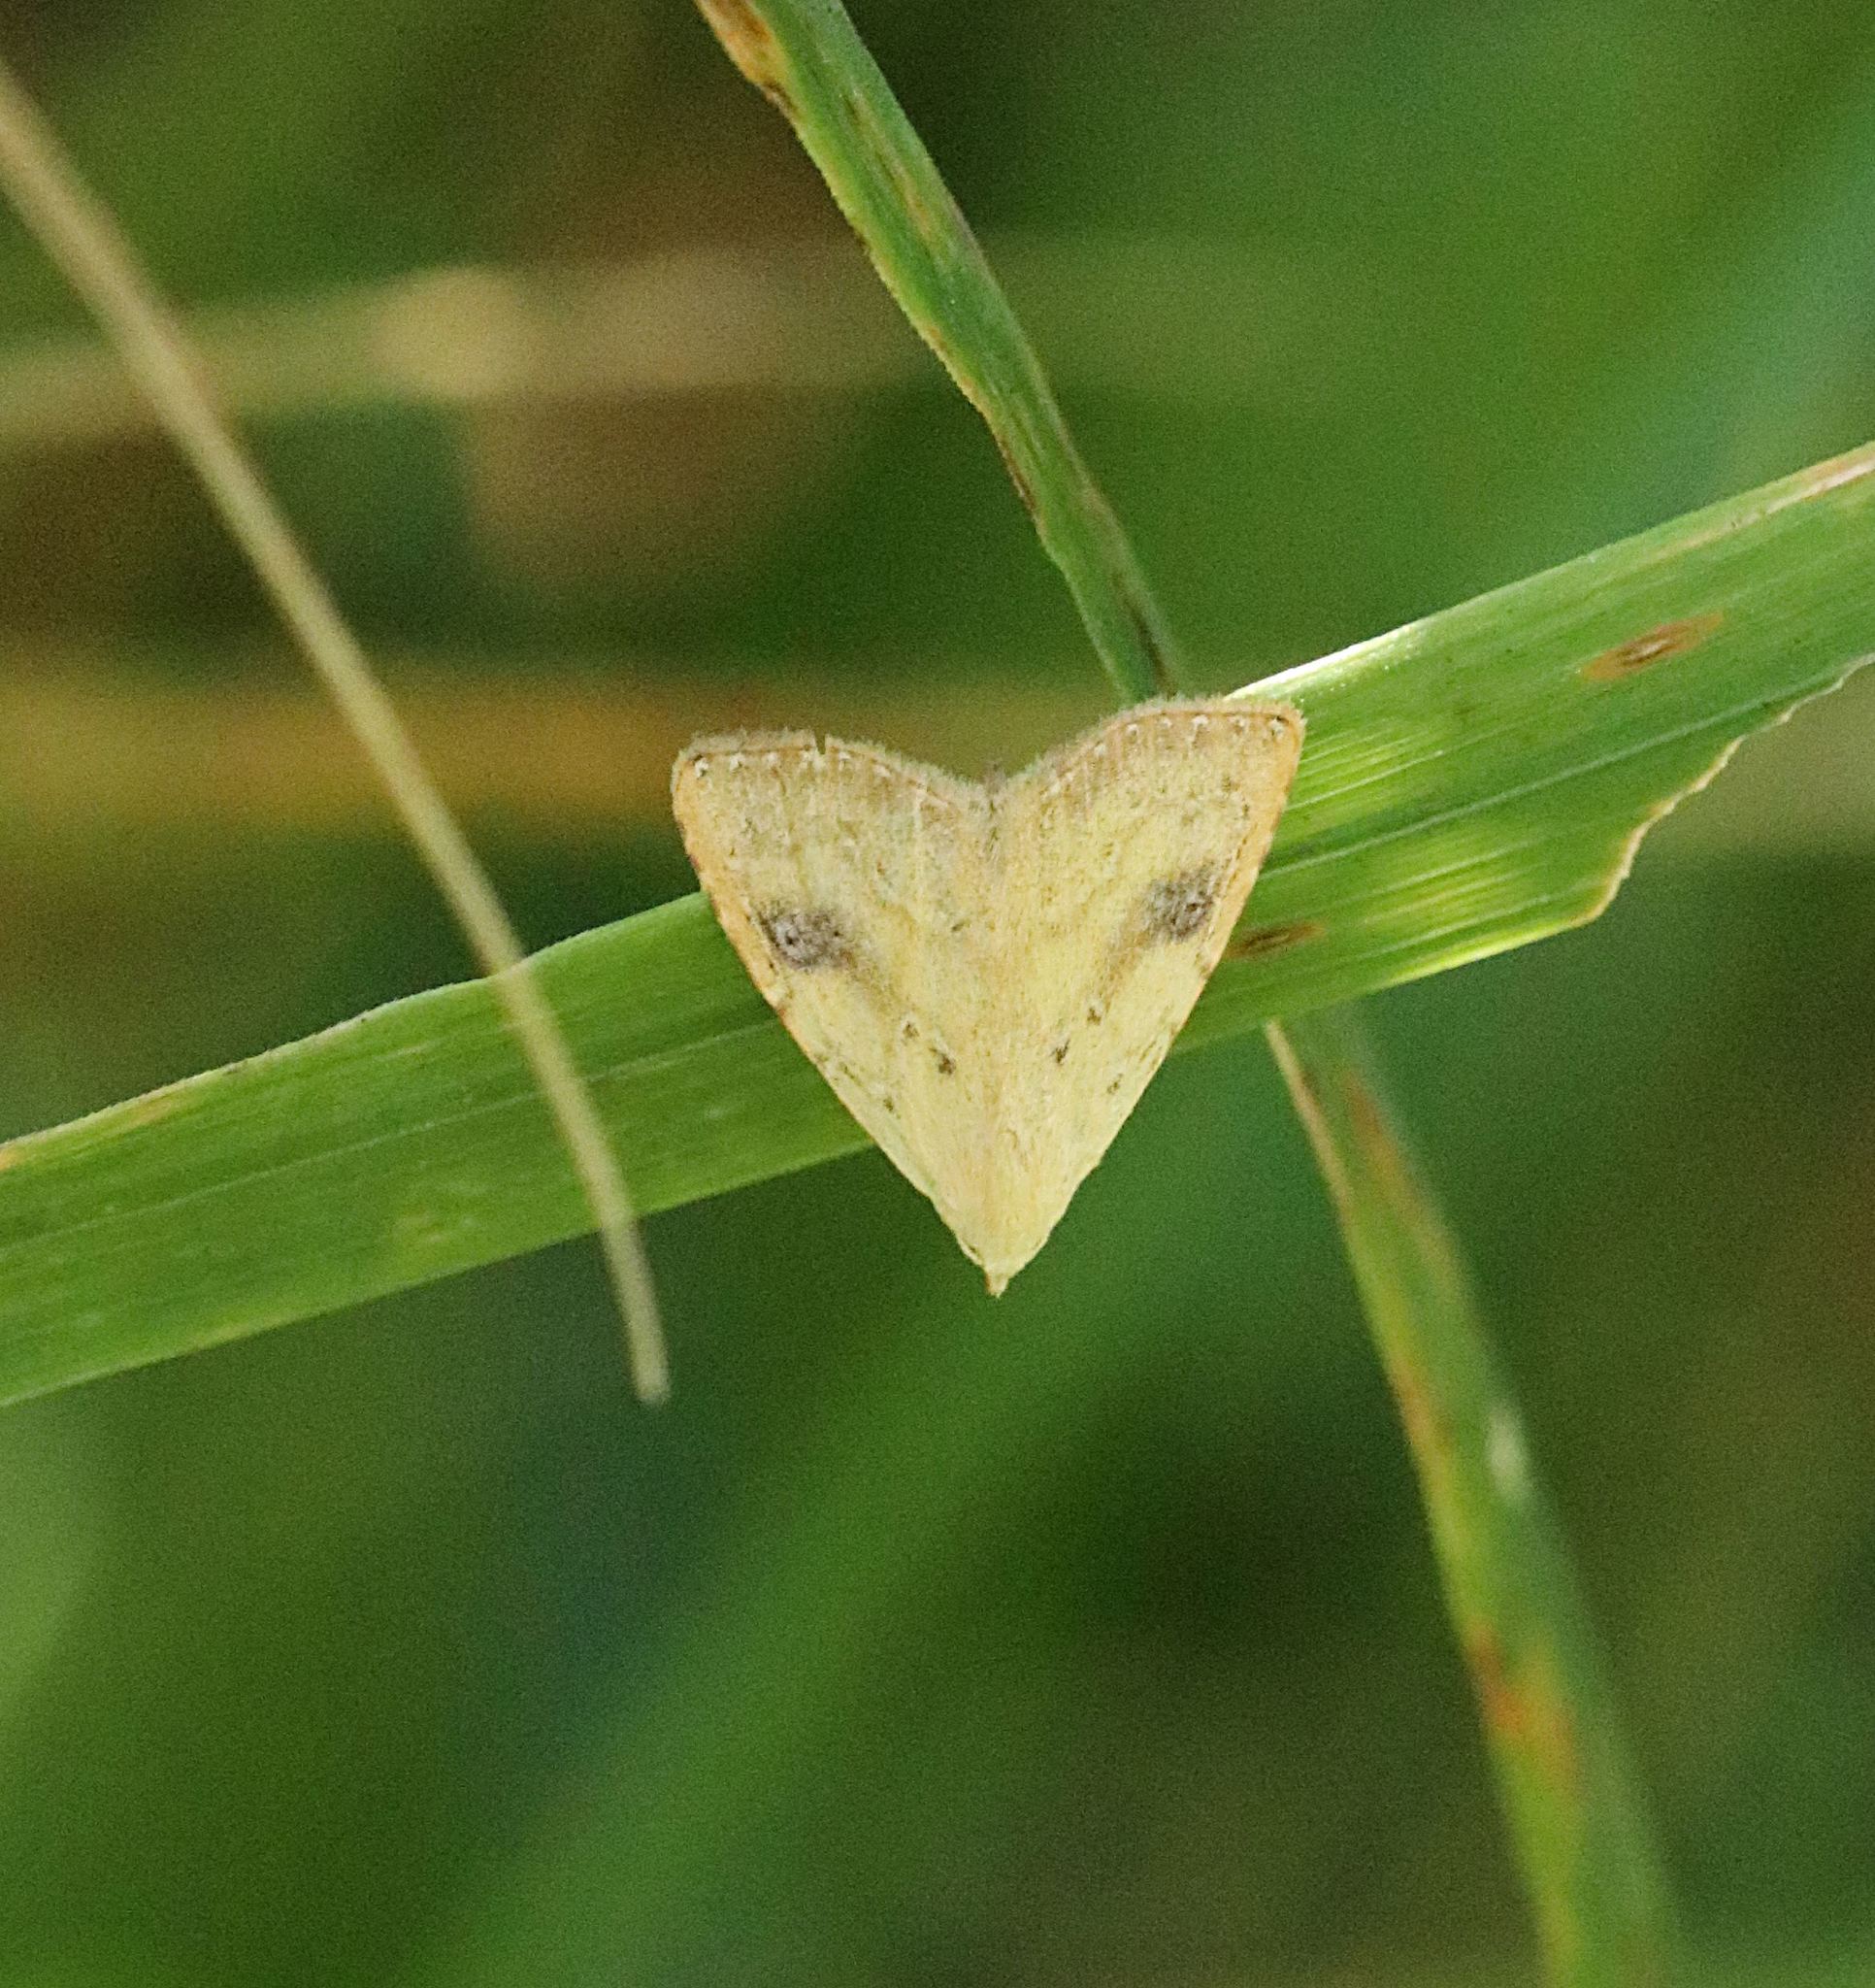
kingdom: Animalia
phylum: Arthropoda
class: Insecta
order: Lepidoptera
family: Erebidae
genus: Rivula
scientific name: Rivula sericealis
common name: Straw dot
